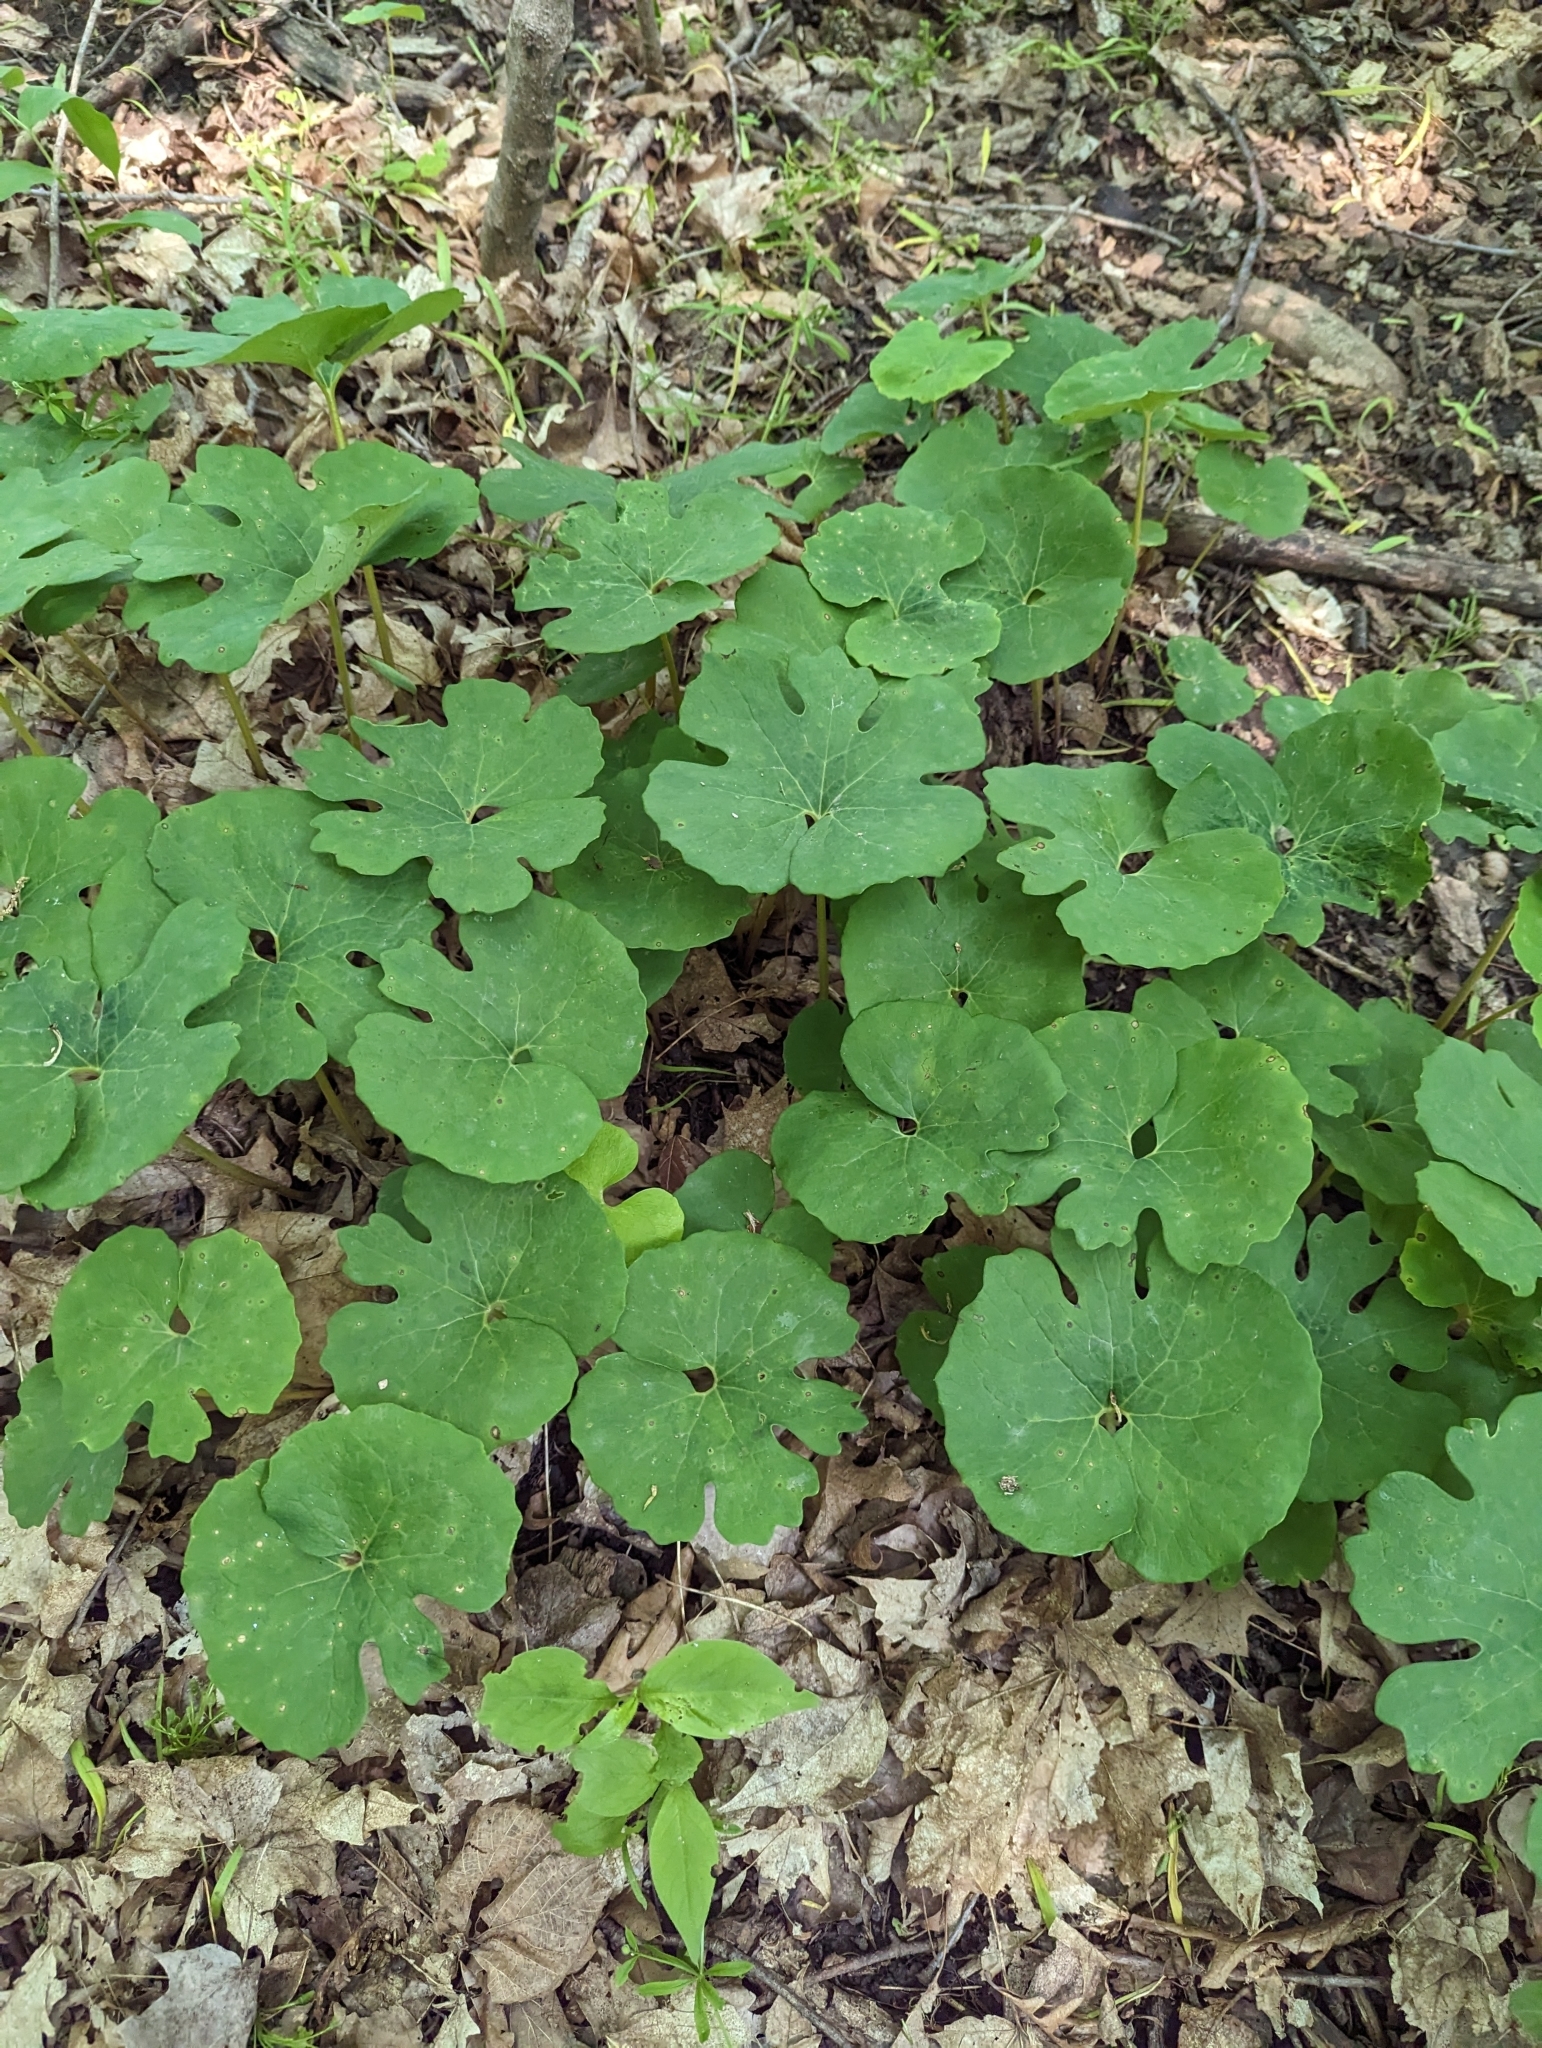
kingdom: Plantae
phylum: Tracheophyta
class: Magnoliopsida
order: Ranunculales
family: Papaveraceae
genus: Sanguinaria
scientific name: Sanguinaria canadensis
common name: Bloodroot
